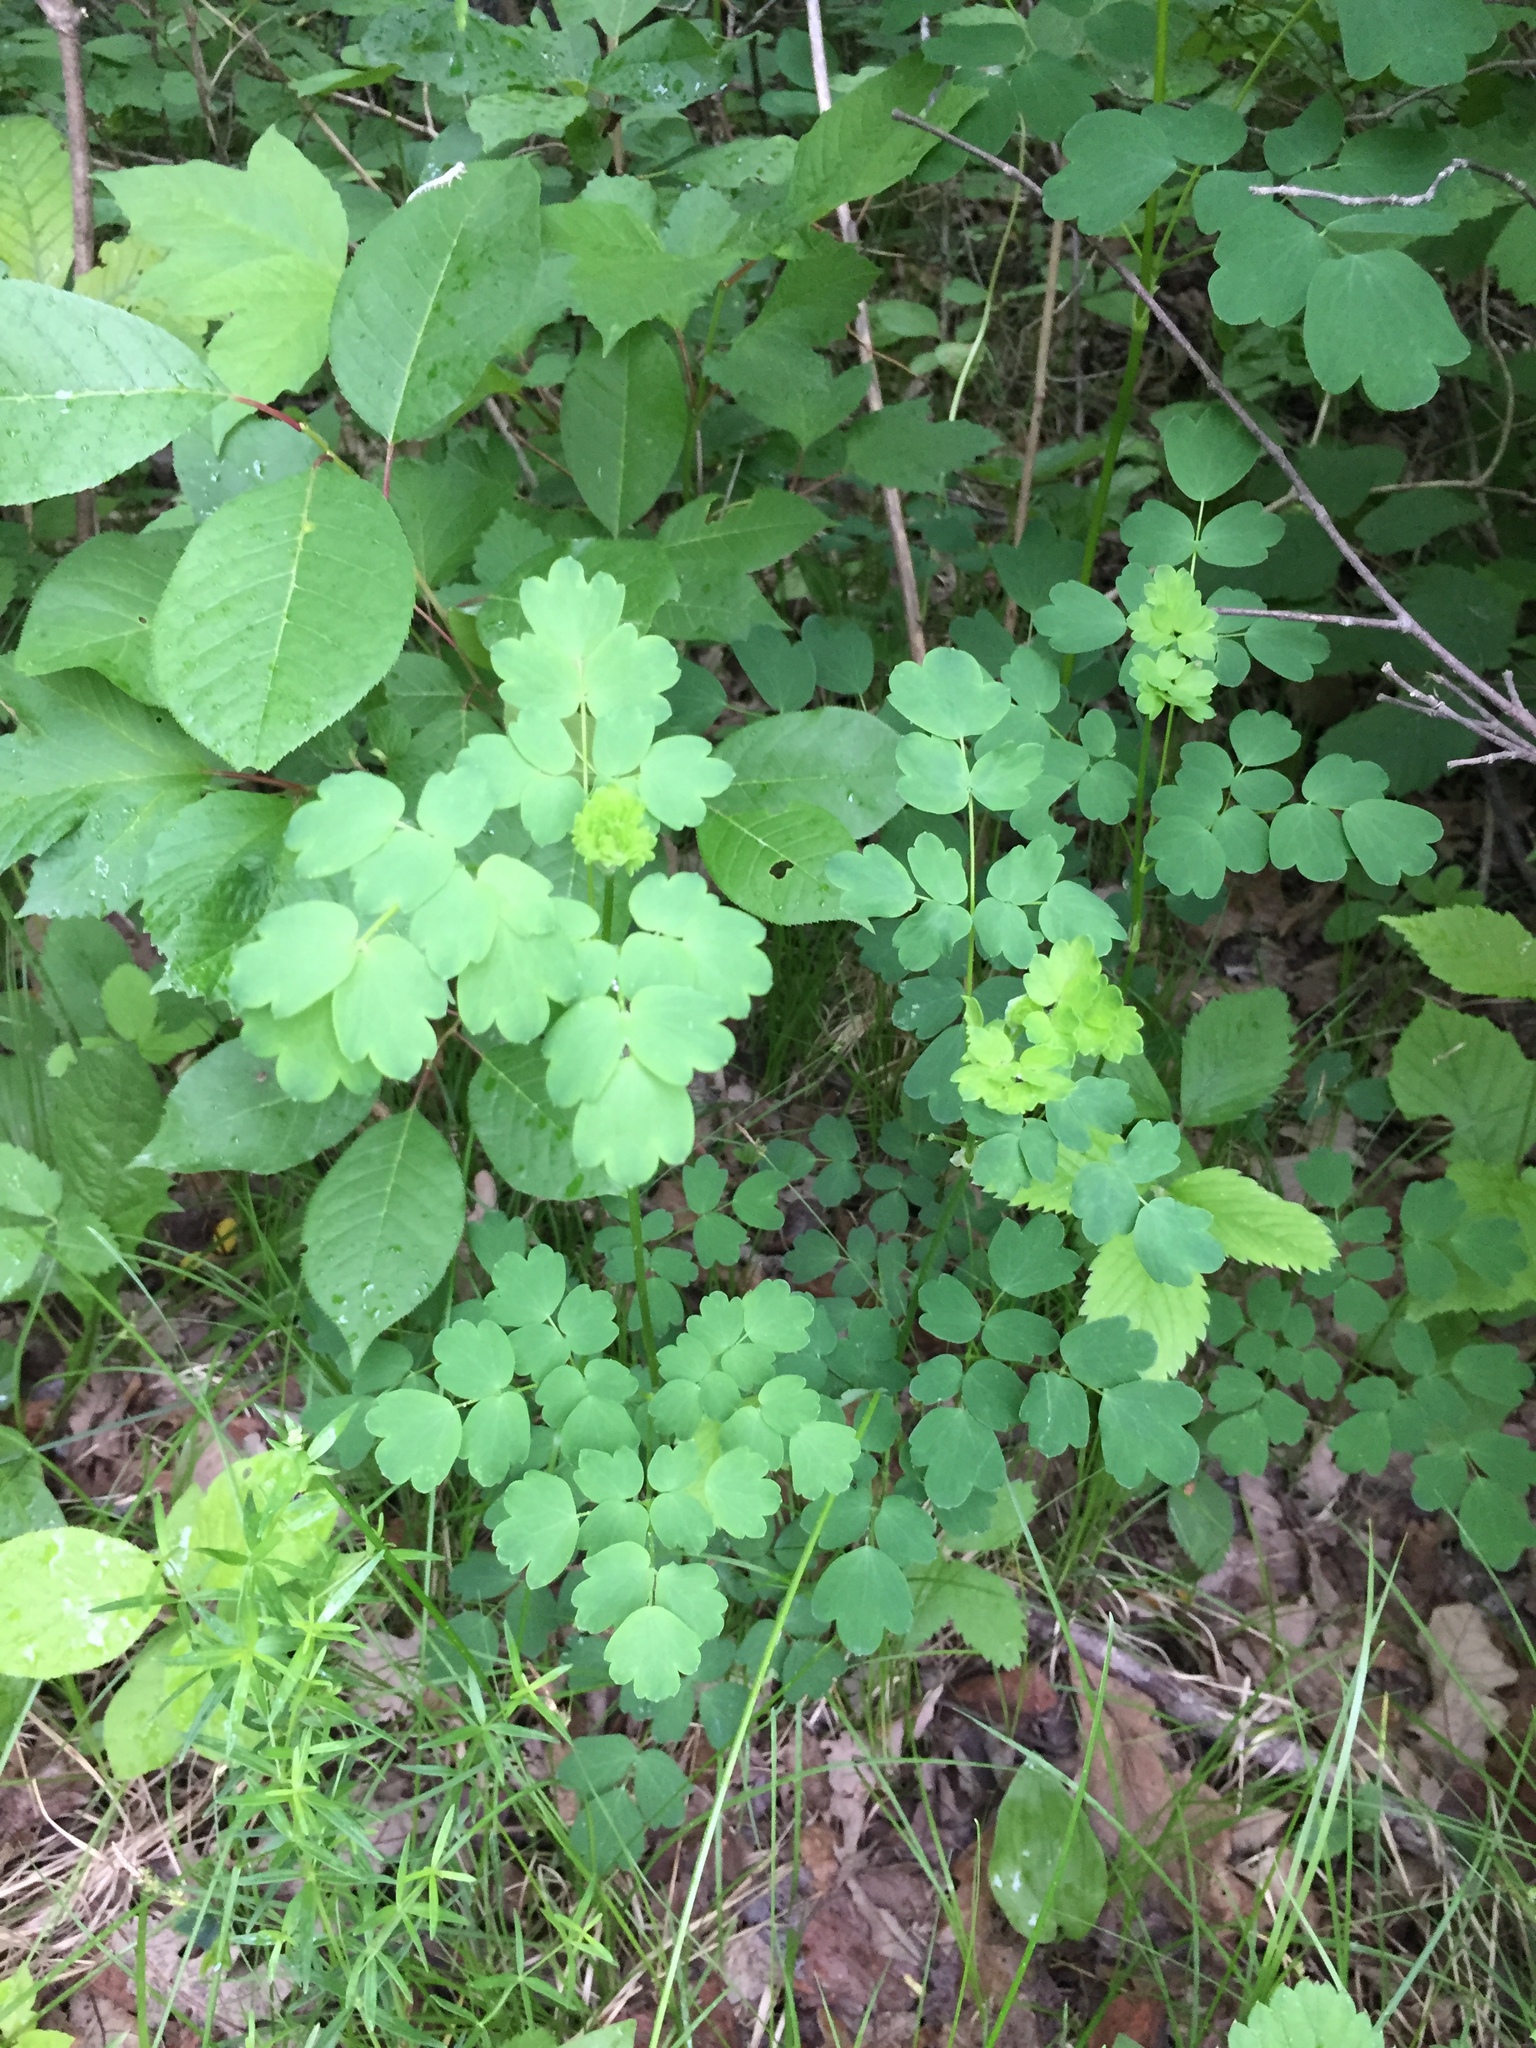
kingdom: Plantae
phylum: Tracheophyta
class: Magnoliopsida
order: Ranunculales
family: Ranunculaceae
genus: Thalictrum
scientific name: Thalictrum venulosum
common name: Early meadow-rue
